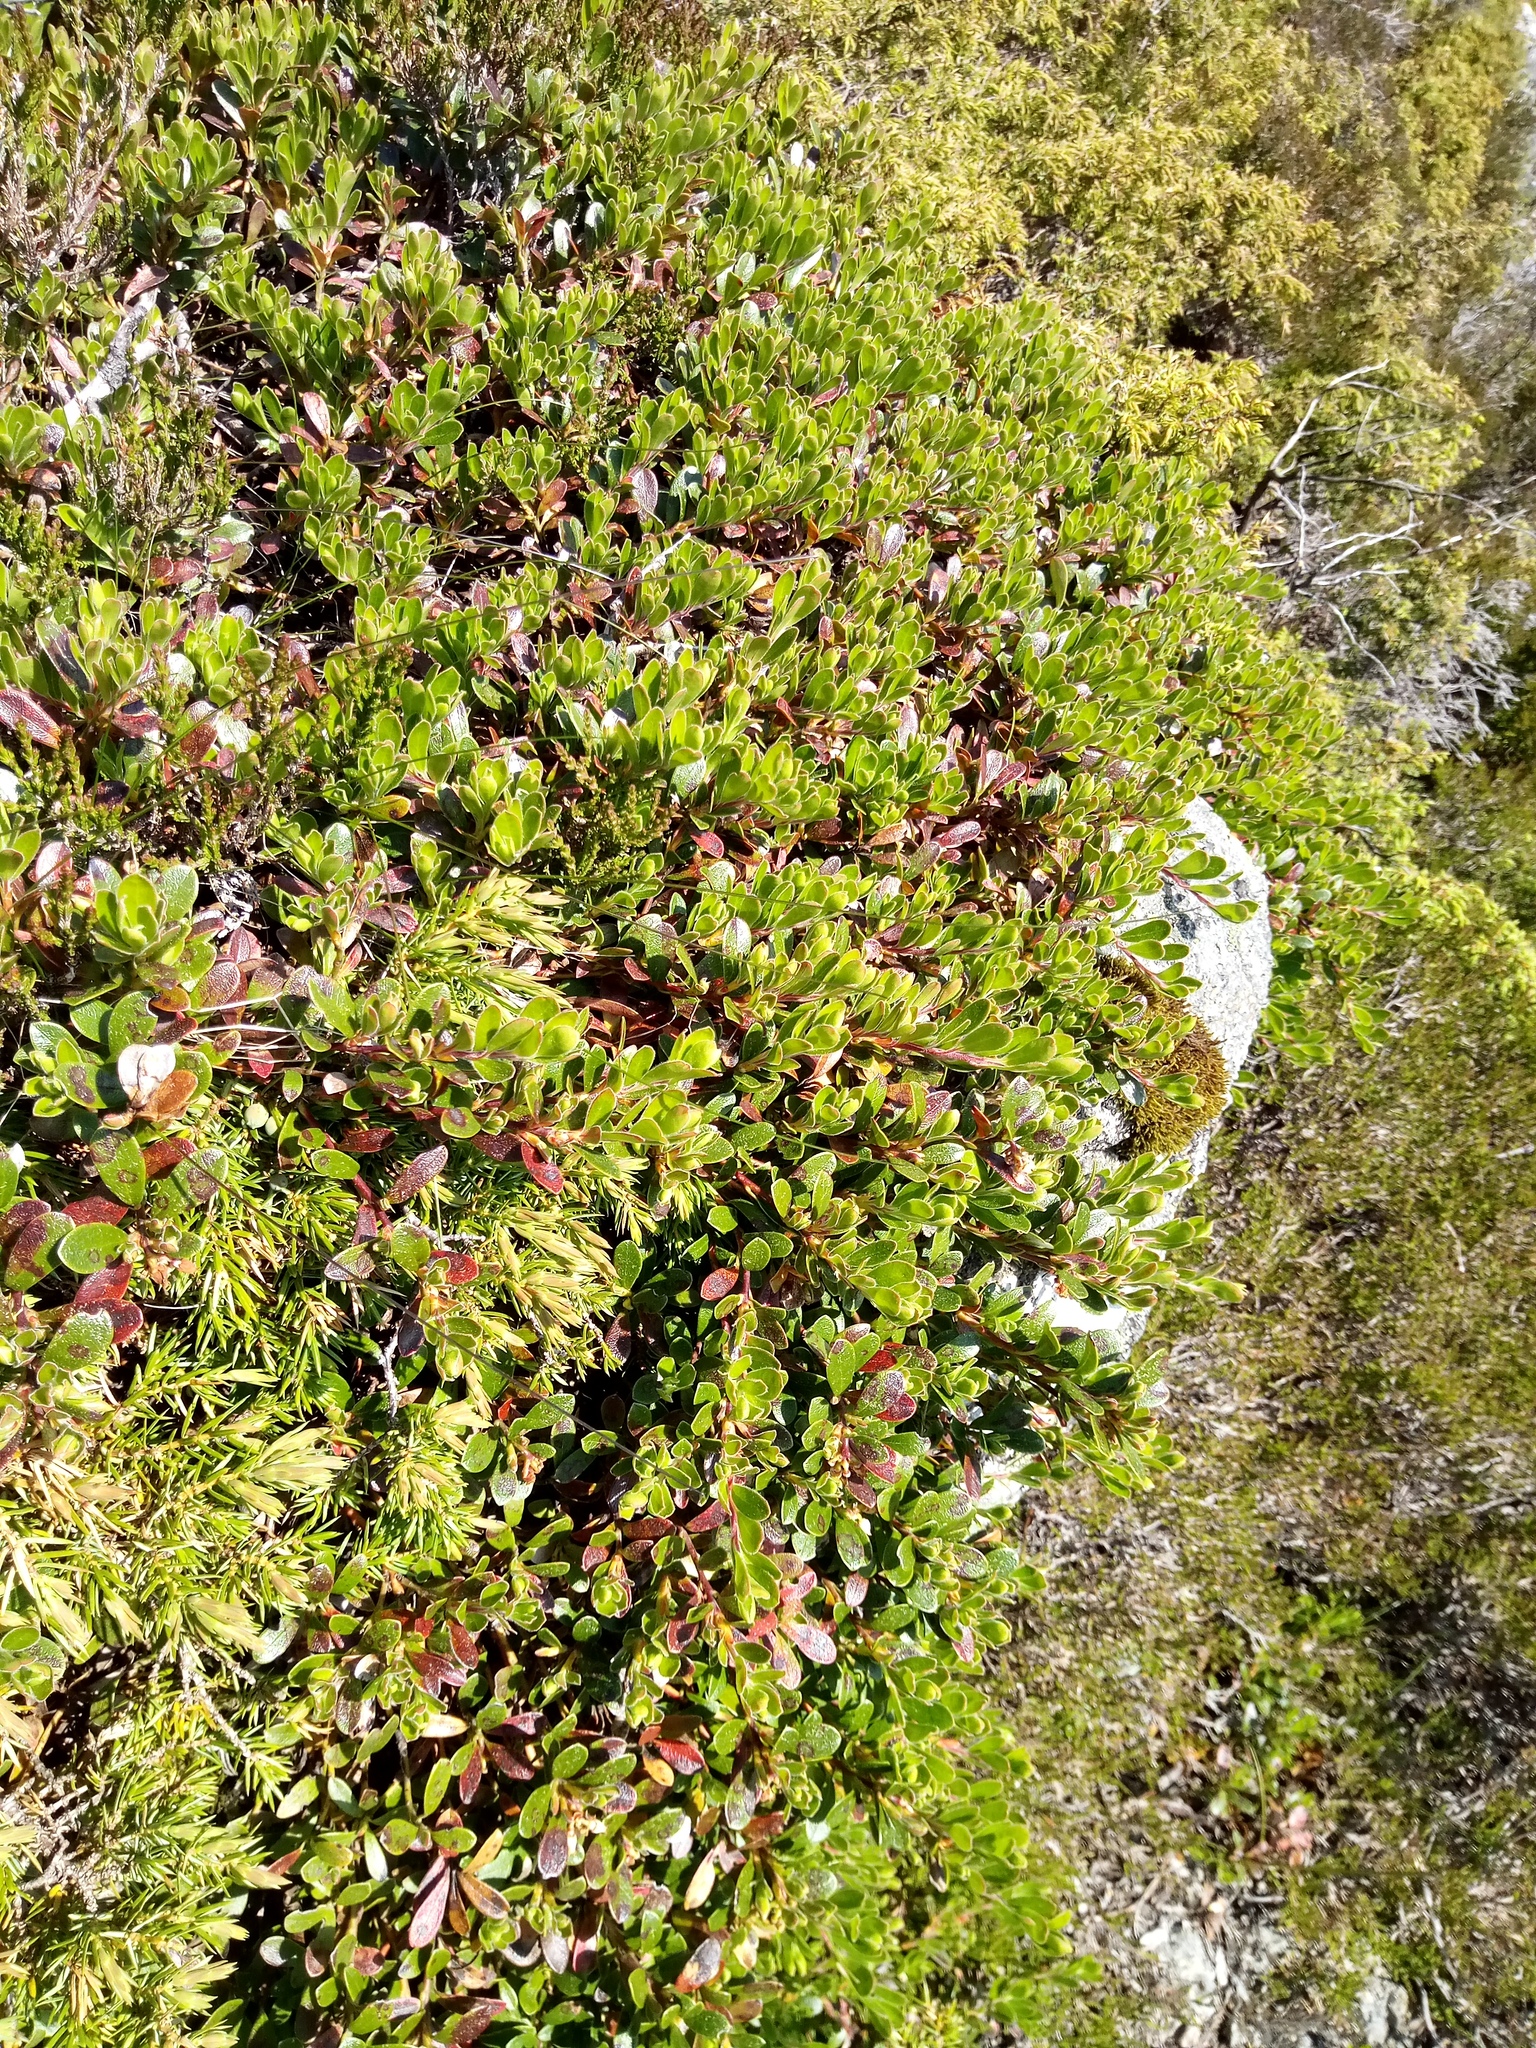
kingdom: Plantae
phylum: Tracheophyta
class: Magnoliopsida
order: Ericales
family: Ericaceae
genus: Arctostaphylos
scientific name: Arctostaphylos uva-ursi
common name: Bearberry
